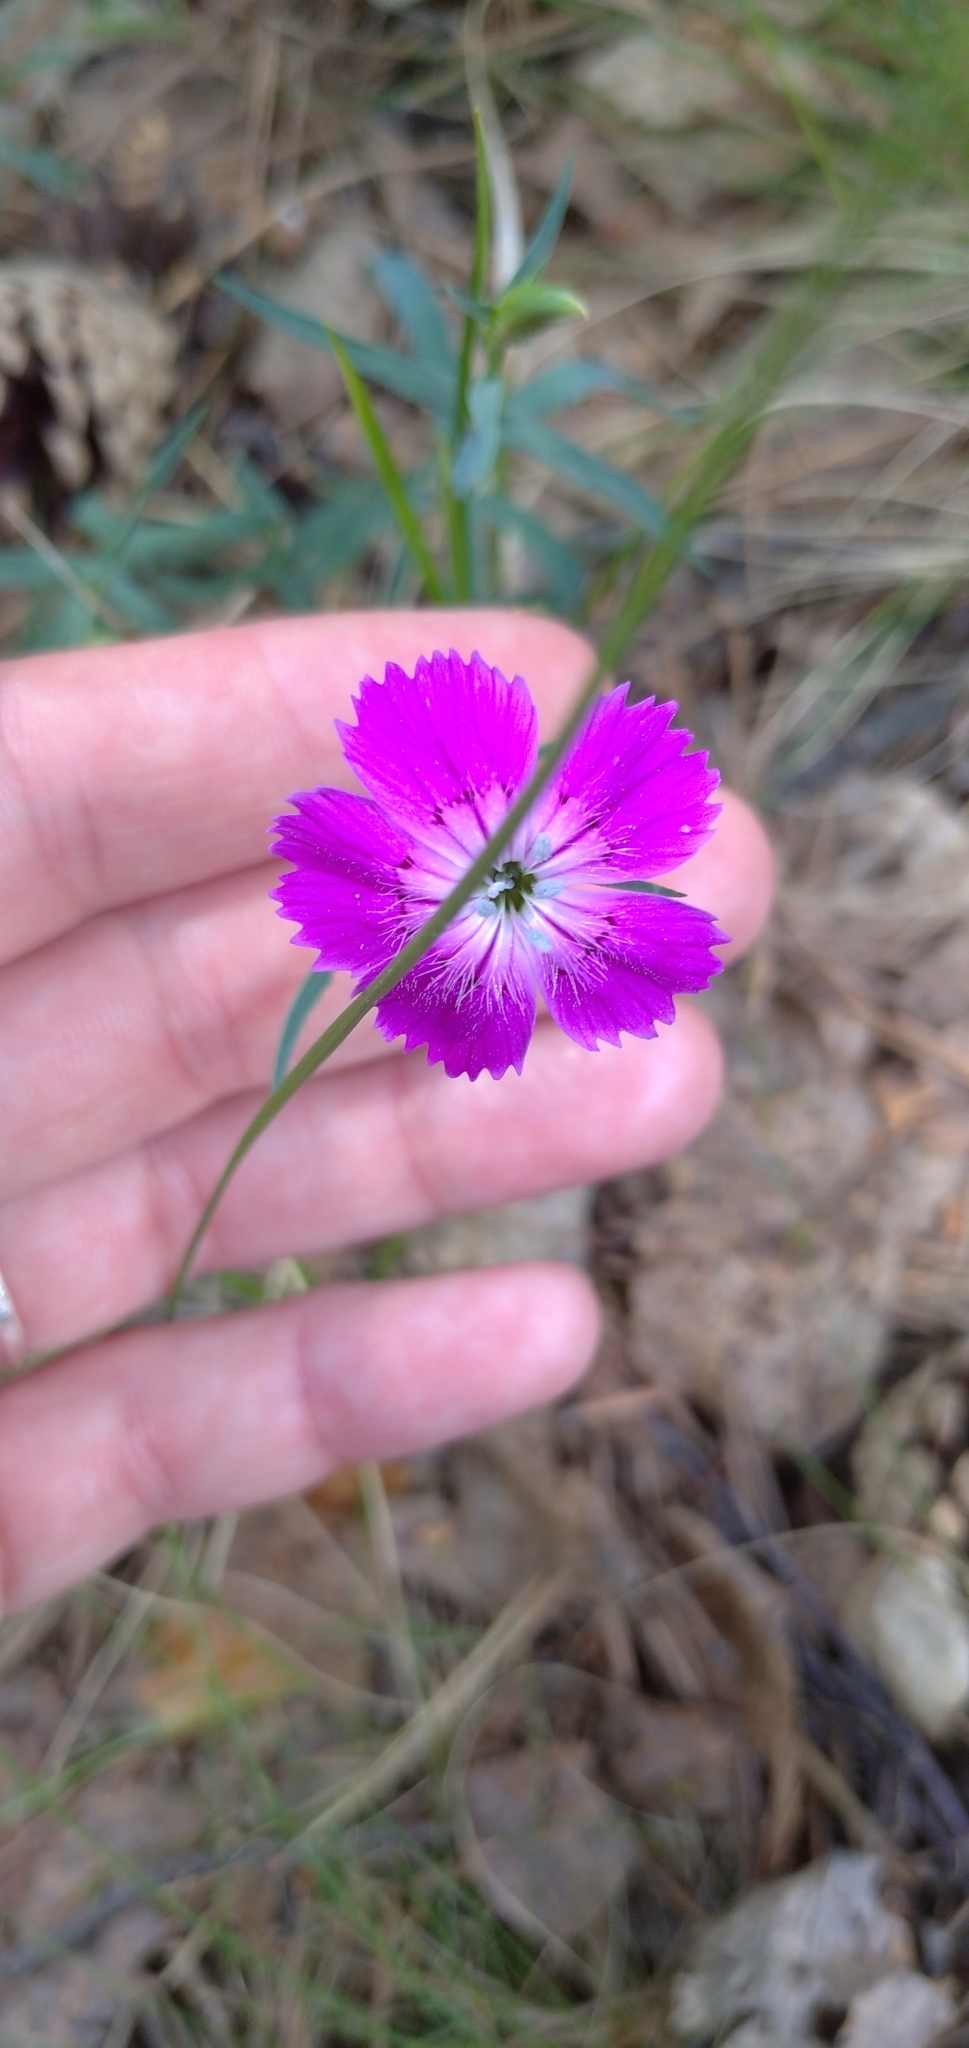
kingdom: Plantae
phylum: Tracheophyta
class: Magnoliopsida
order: Caryophyllales
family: Caryophyllaceae
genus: Dianthus
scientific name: Dianthus chinensis
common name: Rainbow pink
